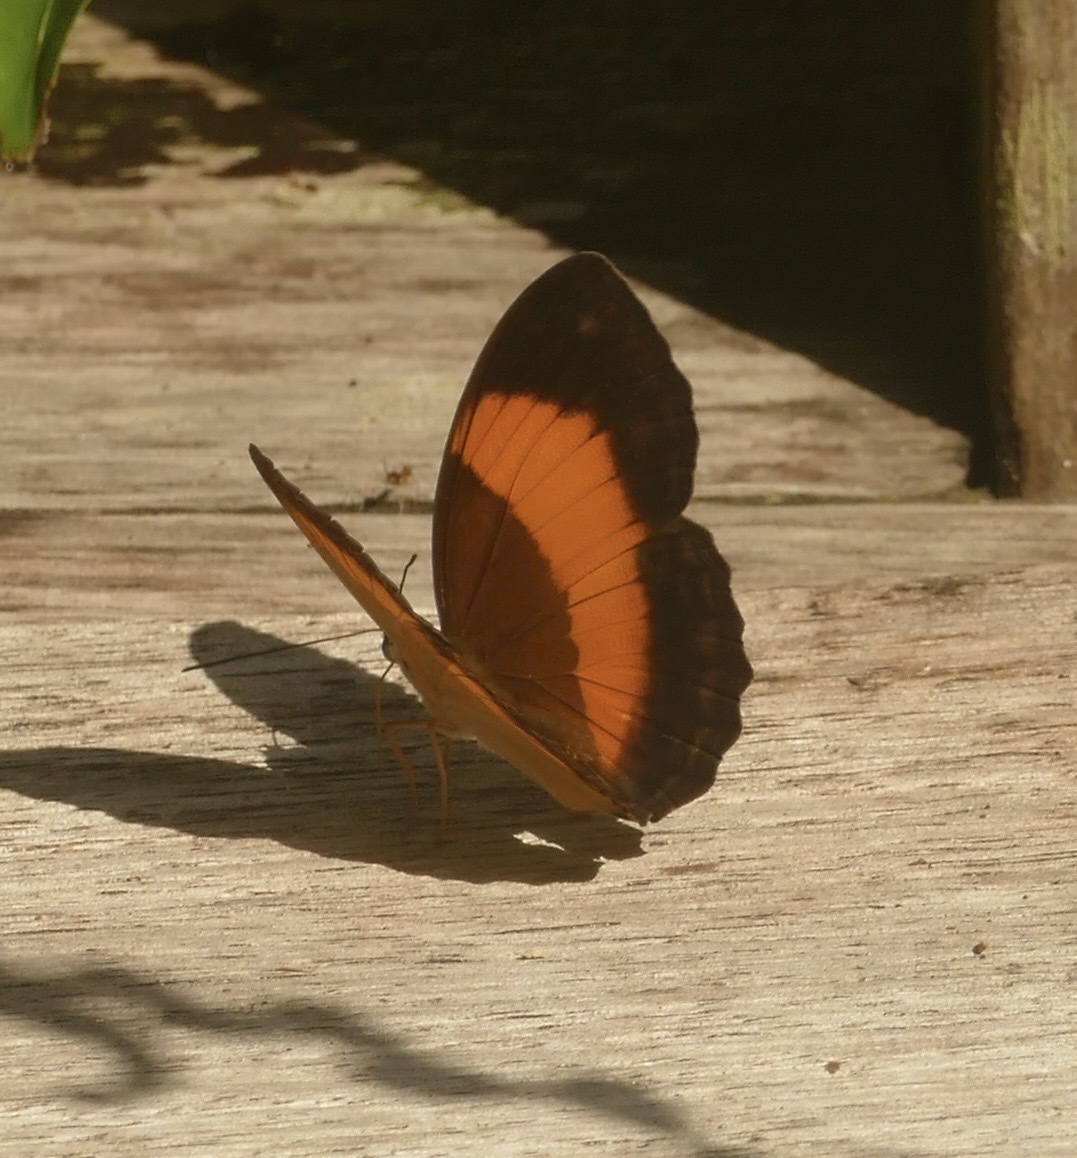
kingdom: Animalia
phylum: Arthropoda
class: Insecta
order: Lepidoptera
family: Nymphalidae
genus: Cupha
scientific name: Cupha prosope
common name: Bordered rustic
